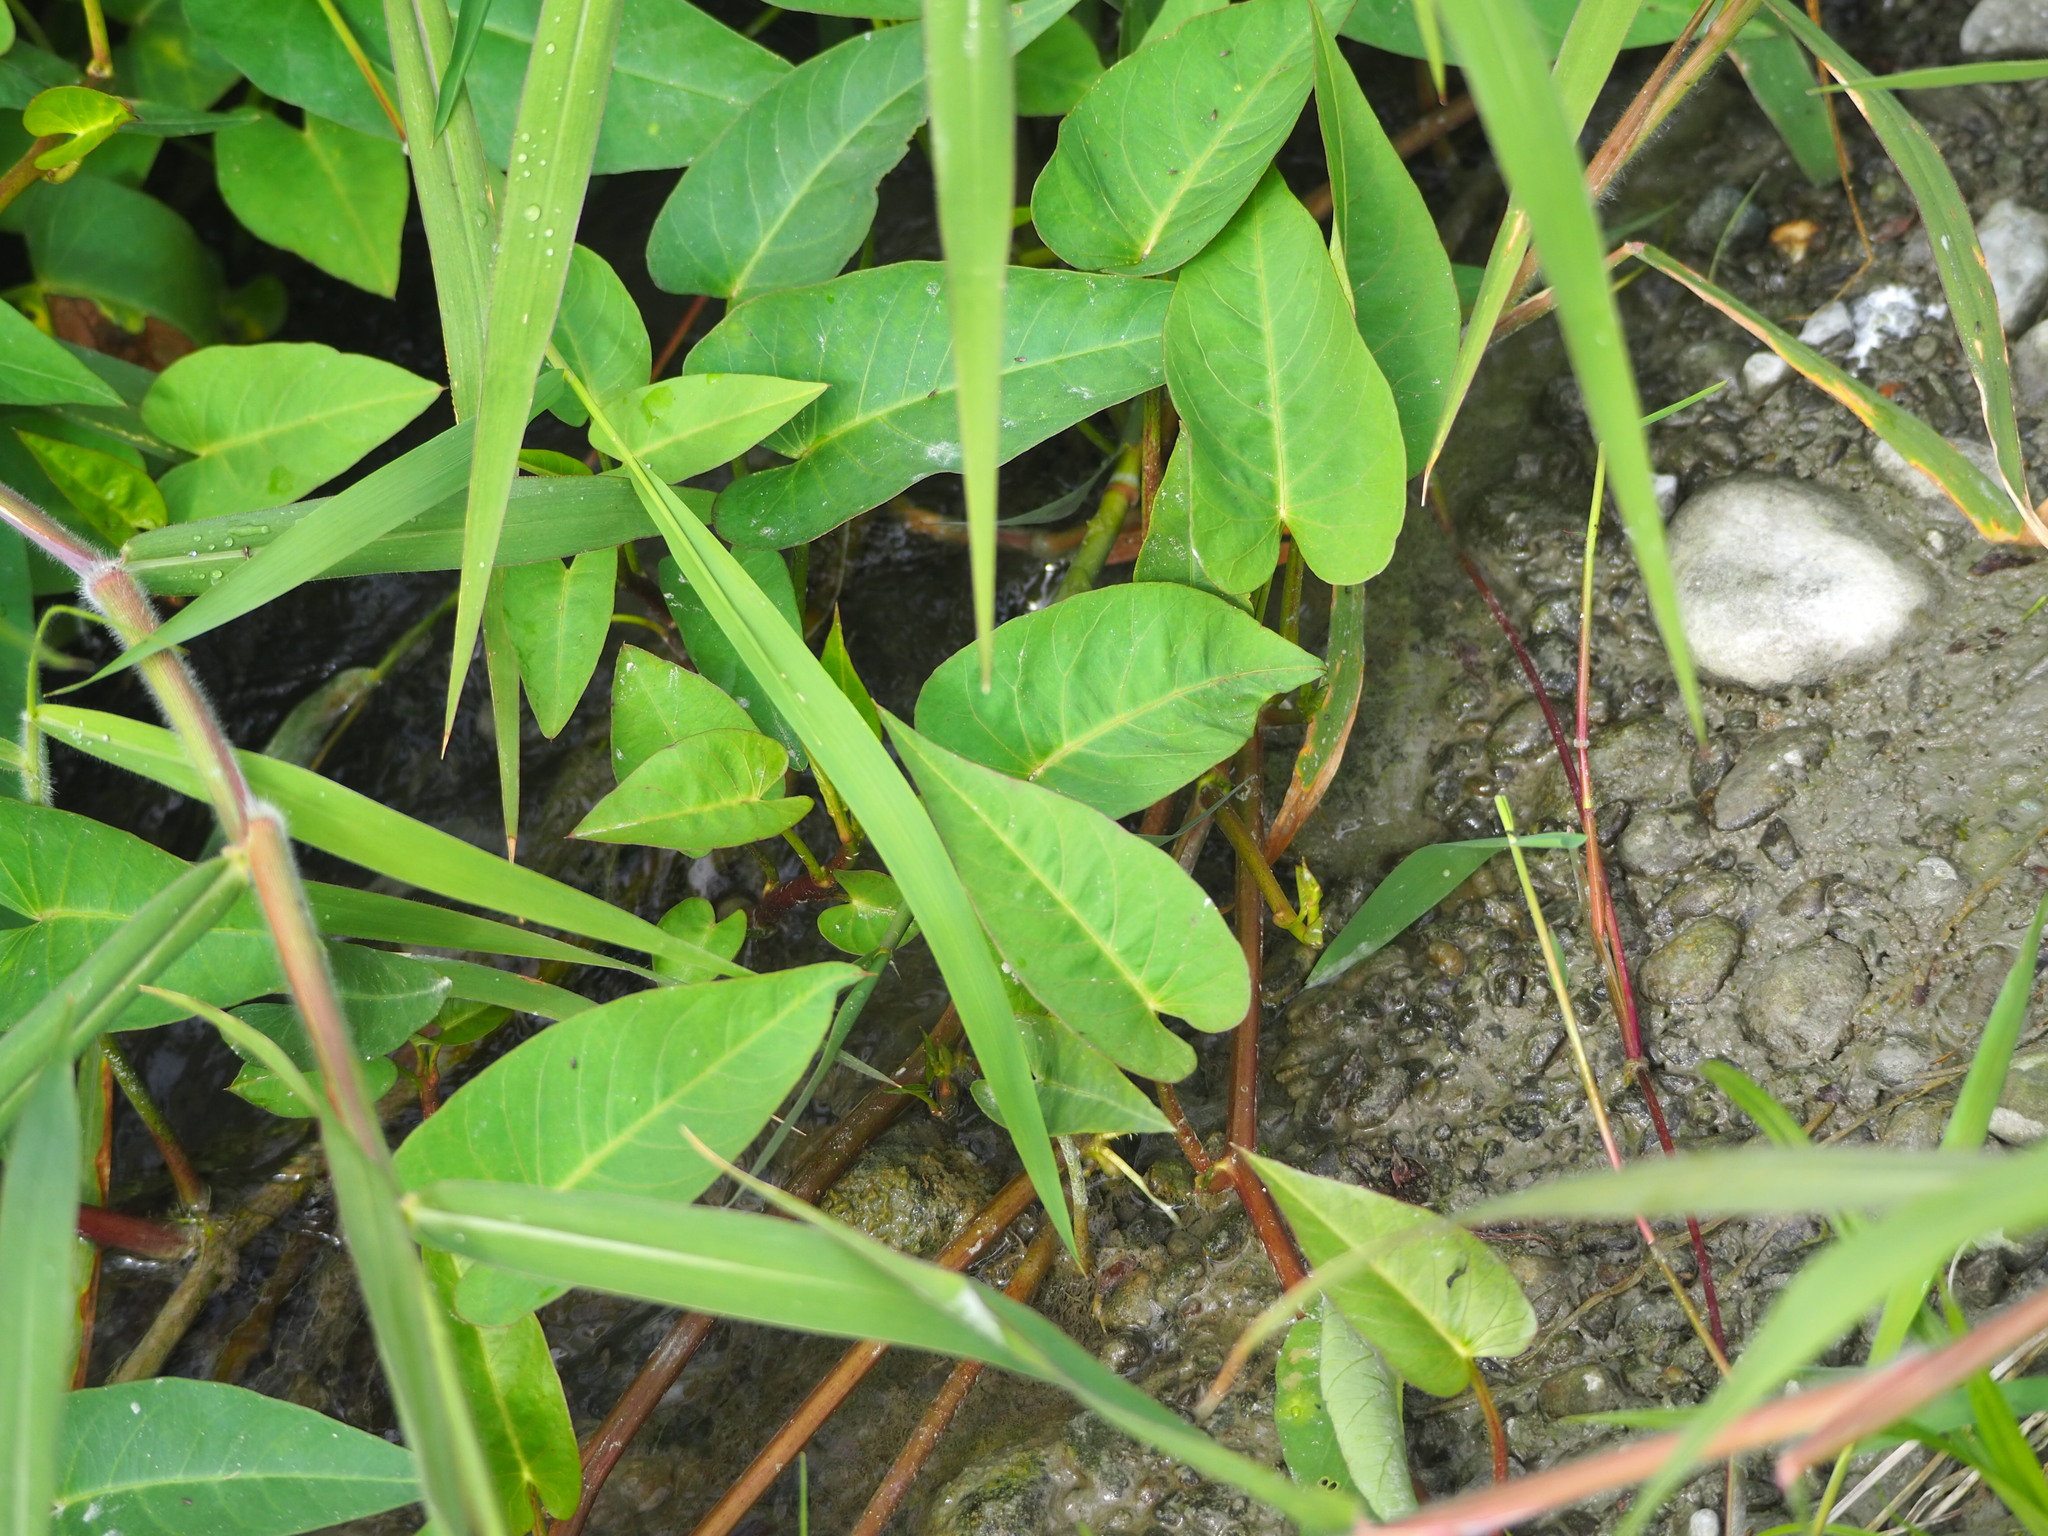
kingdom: Plantae
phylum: Tracheophyta
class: Magnoliopsida
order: Solanales
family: Convolvulaceae
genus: Ipomoea
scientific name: Ipomoea aquatica
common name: Swamp morning-glory
